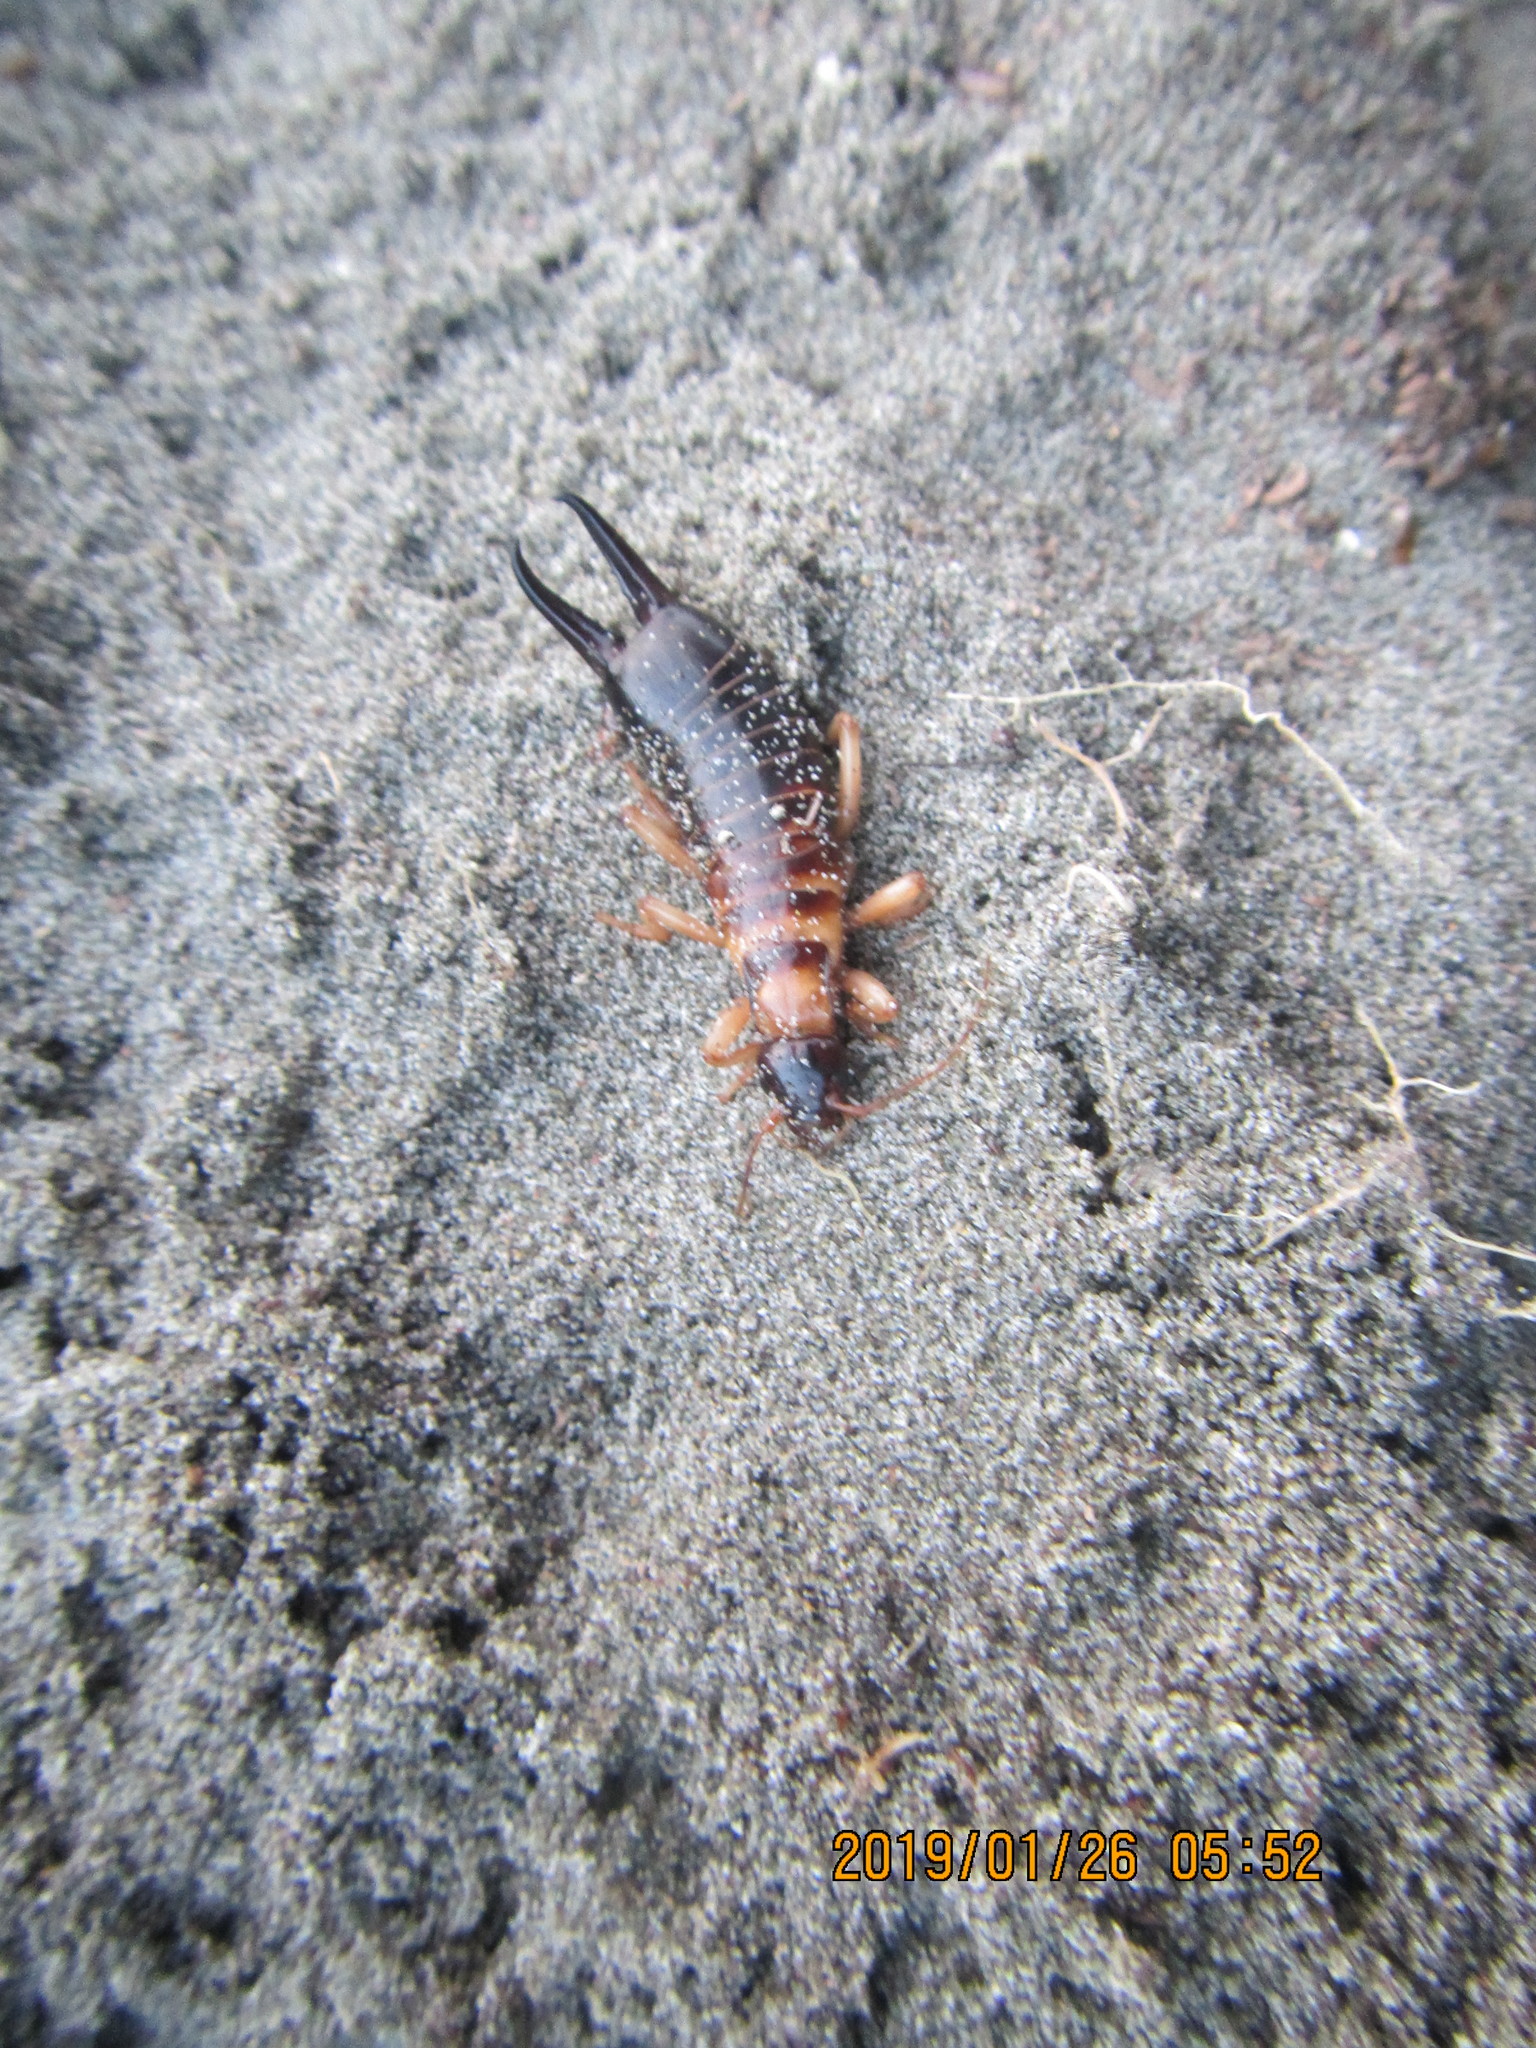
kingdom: Animalia
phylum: Arthropoda
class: Insecta
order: Dermaptera
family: Anisolabididae
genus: Anisolabis
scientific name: Anisolabis littorea
